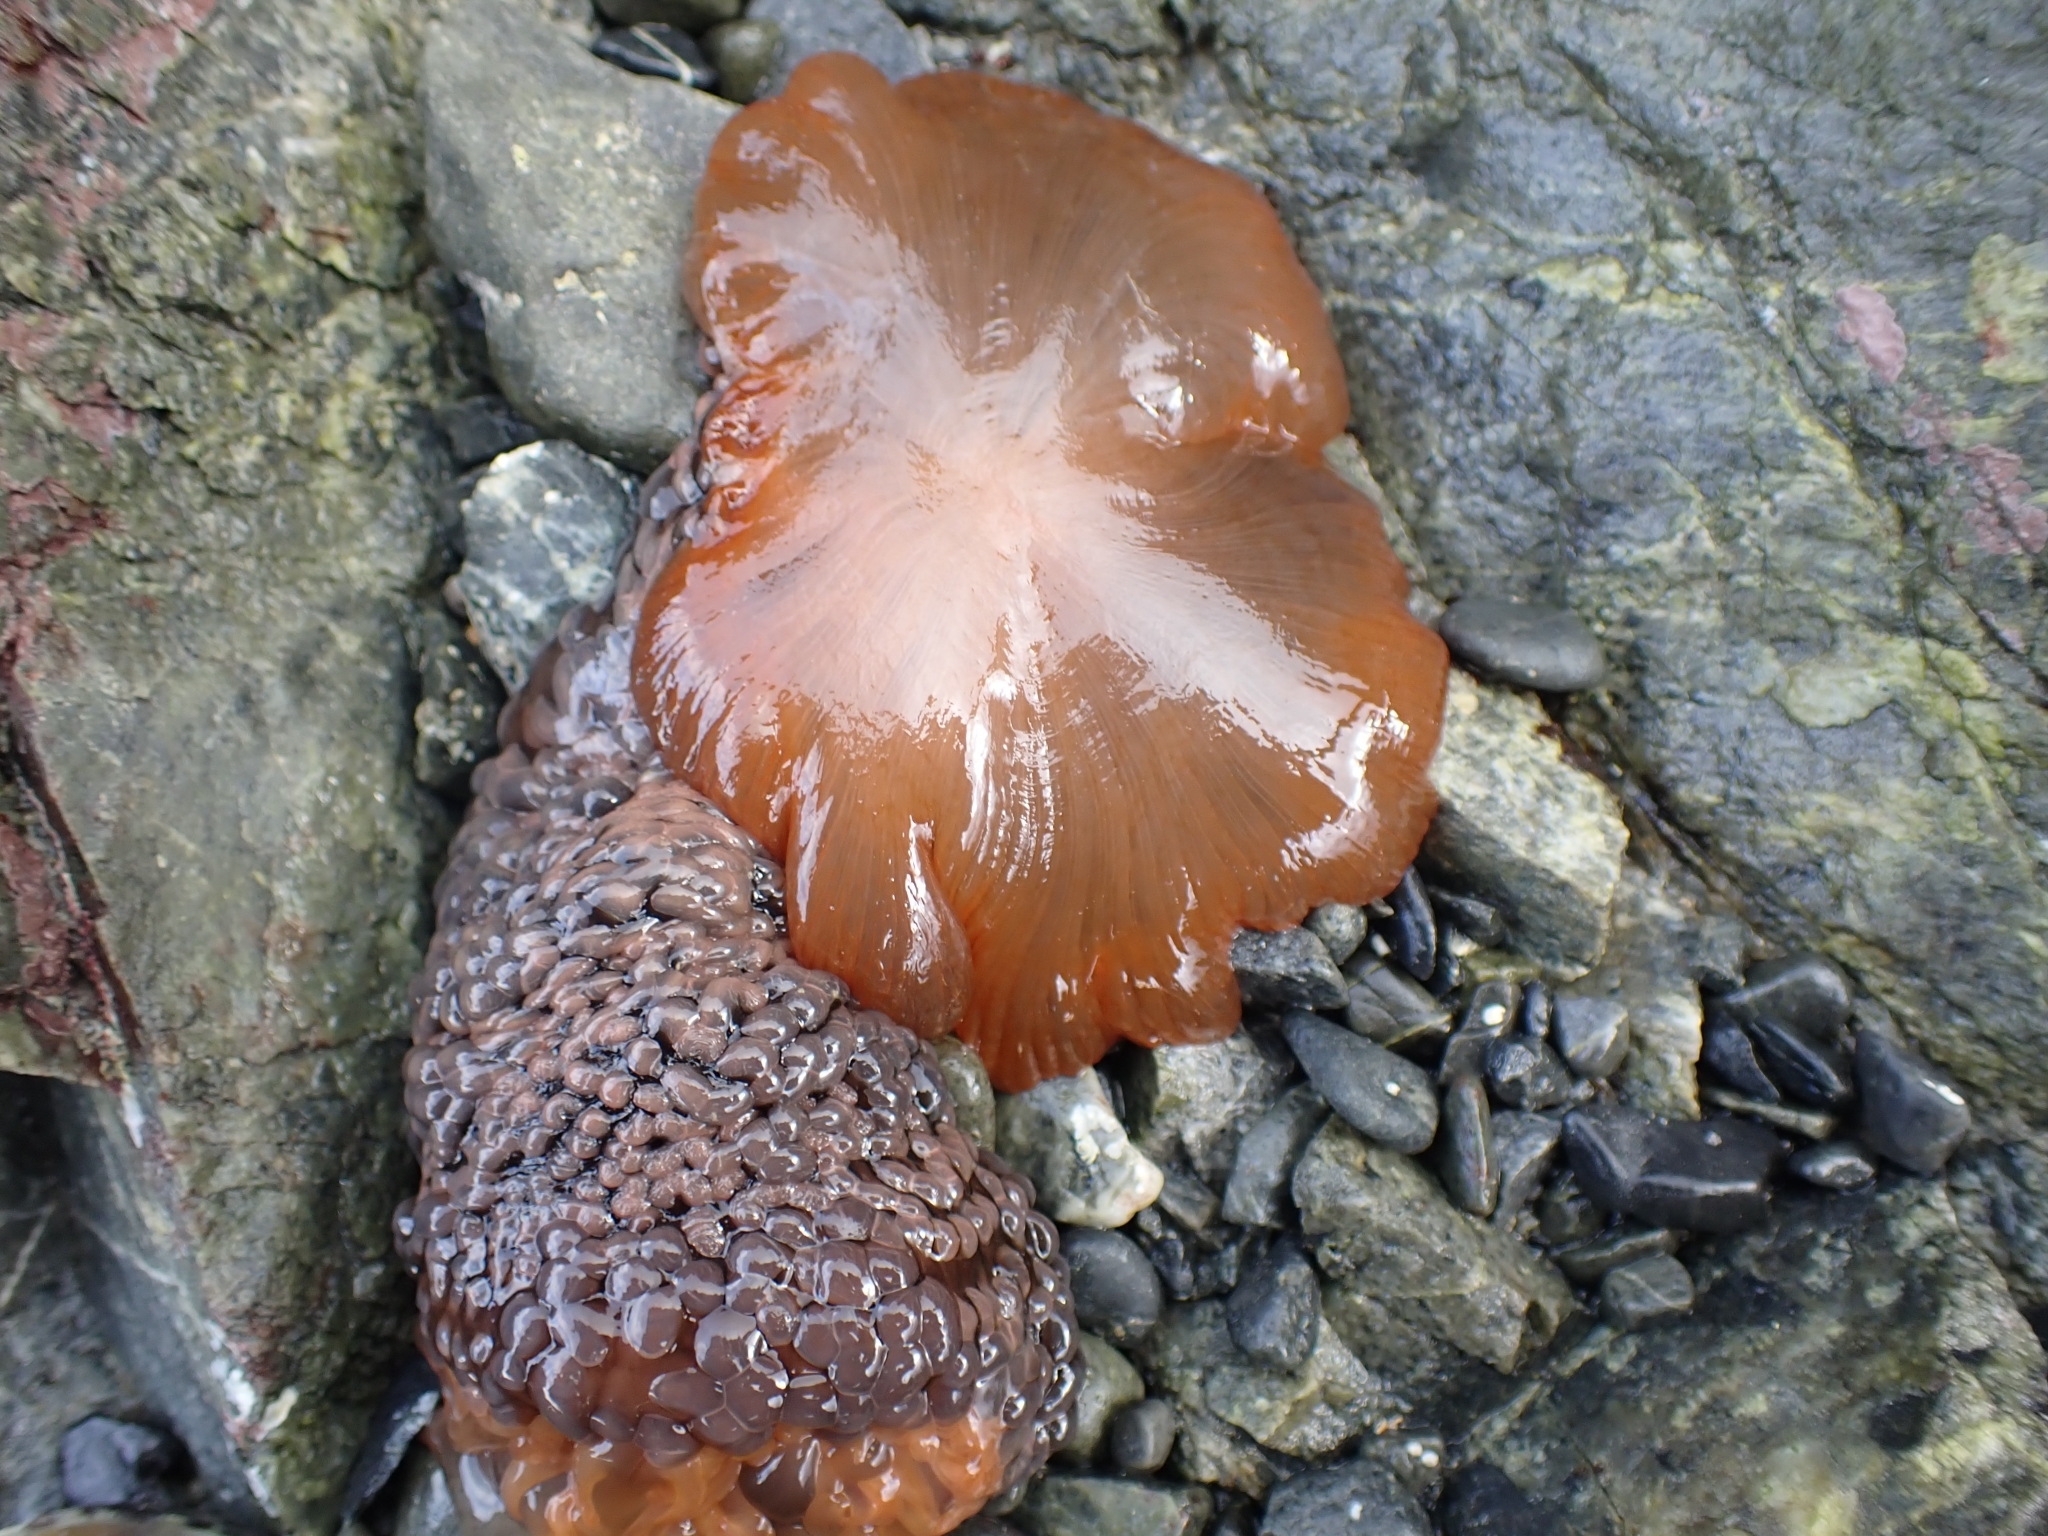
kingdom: Animalia
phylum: Cnidaria
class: Anthozoa
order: Actiniaria
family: Actiniidae
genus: Phlyctenactis
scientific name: Phlyctenactis tuberculosa
